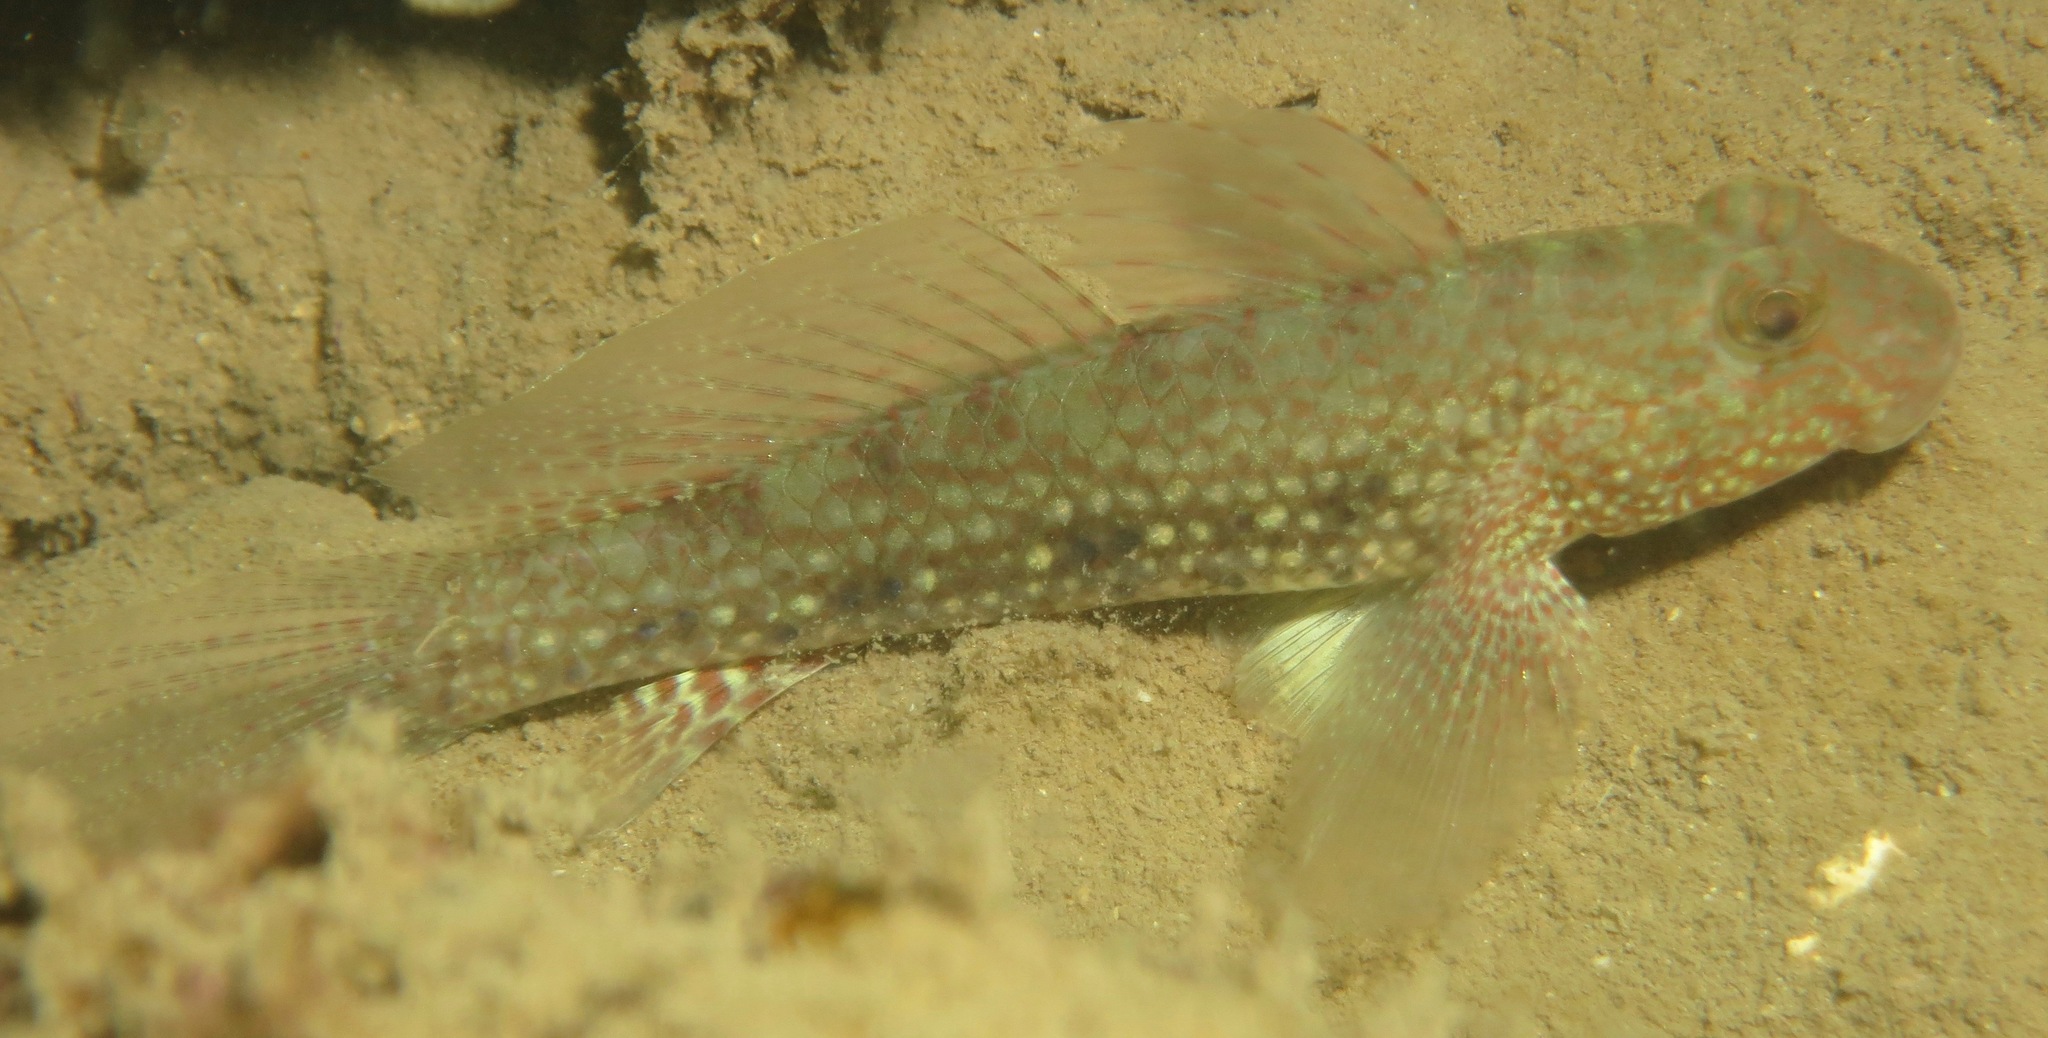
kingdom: Animalia
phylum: Chordata
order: Perciformes
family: Gobiidae
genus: Exyrias
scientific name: Exyrias belissimus
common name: Mud reef-goby
